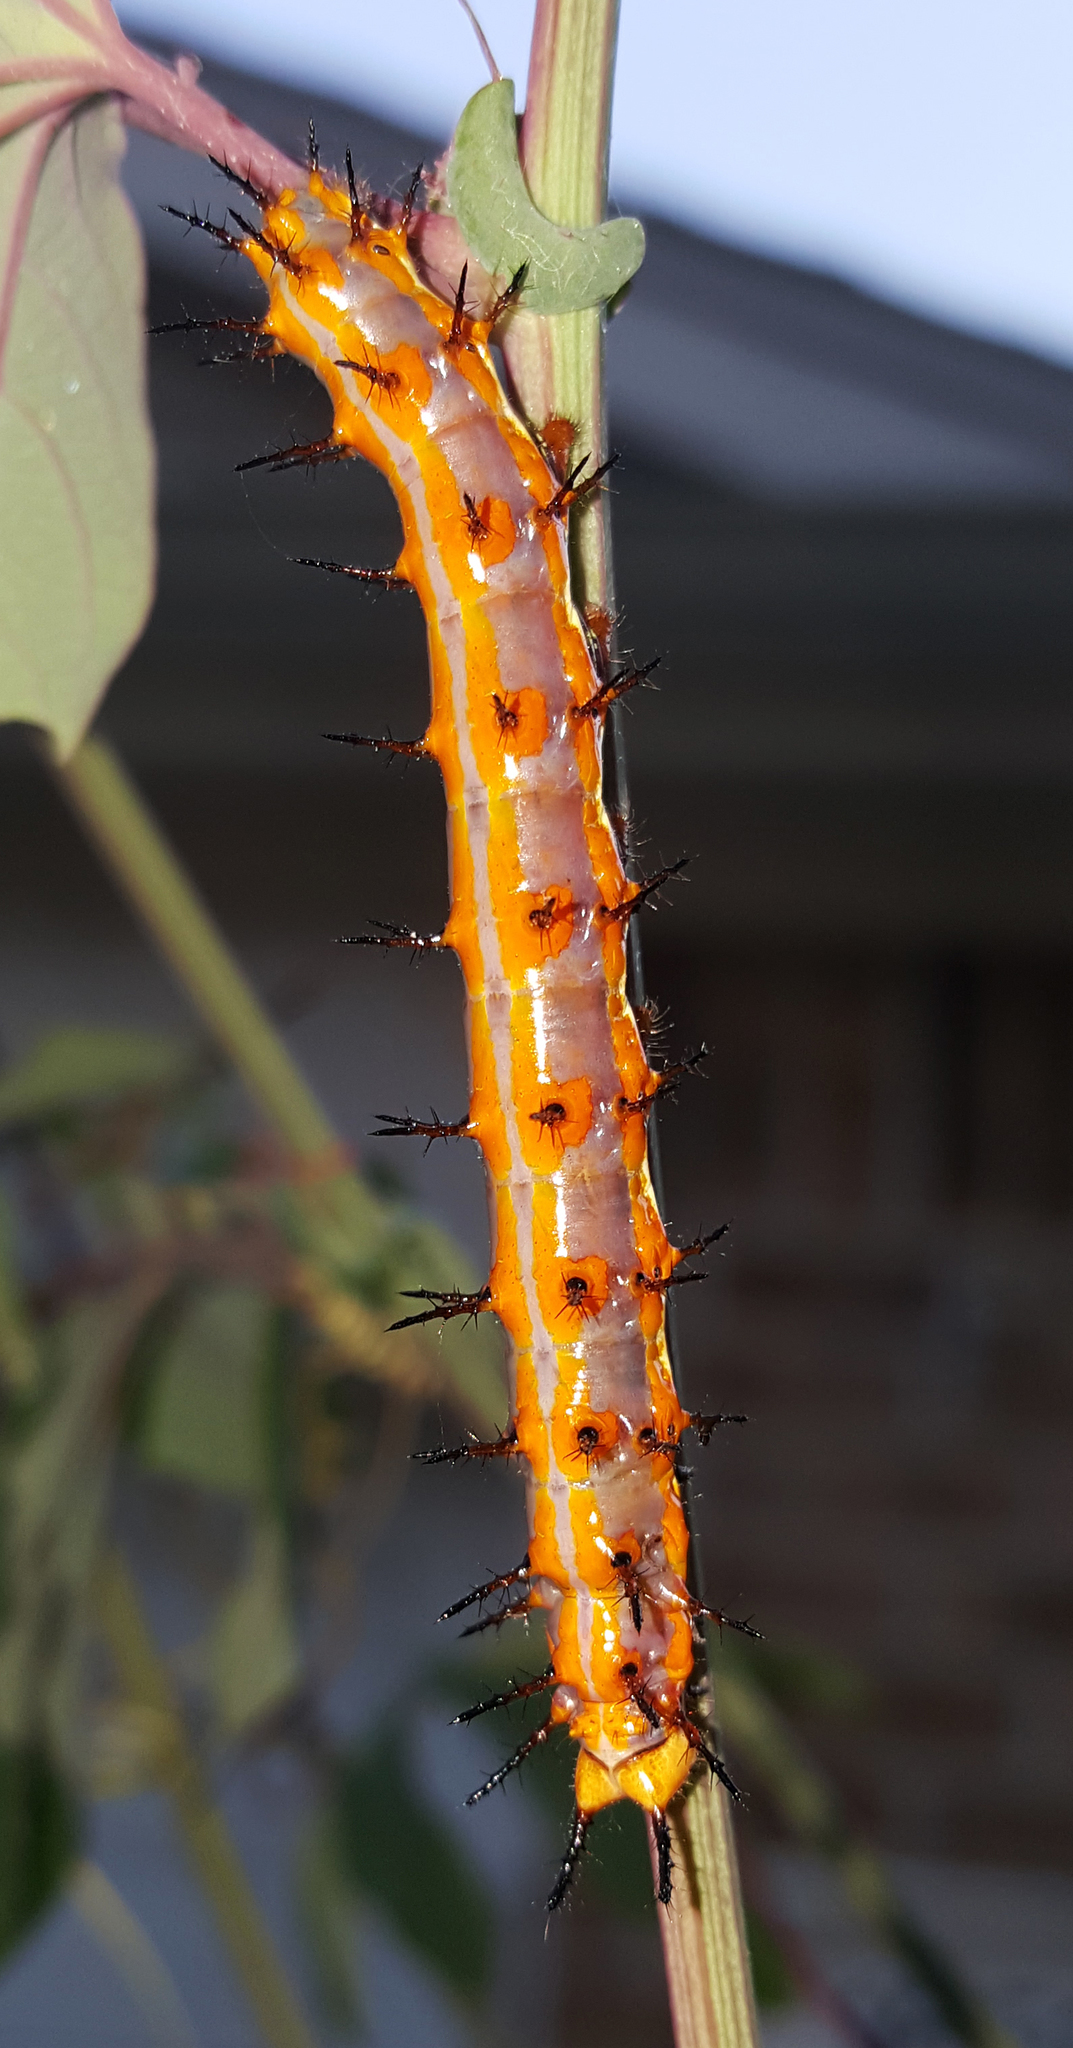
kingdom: Animalia
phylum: Arthropoda
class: Insecta
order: Lepidoptera
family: Nymphalidae
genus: Dione
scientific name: Dione vanillae
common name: Gulf fritillary
